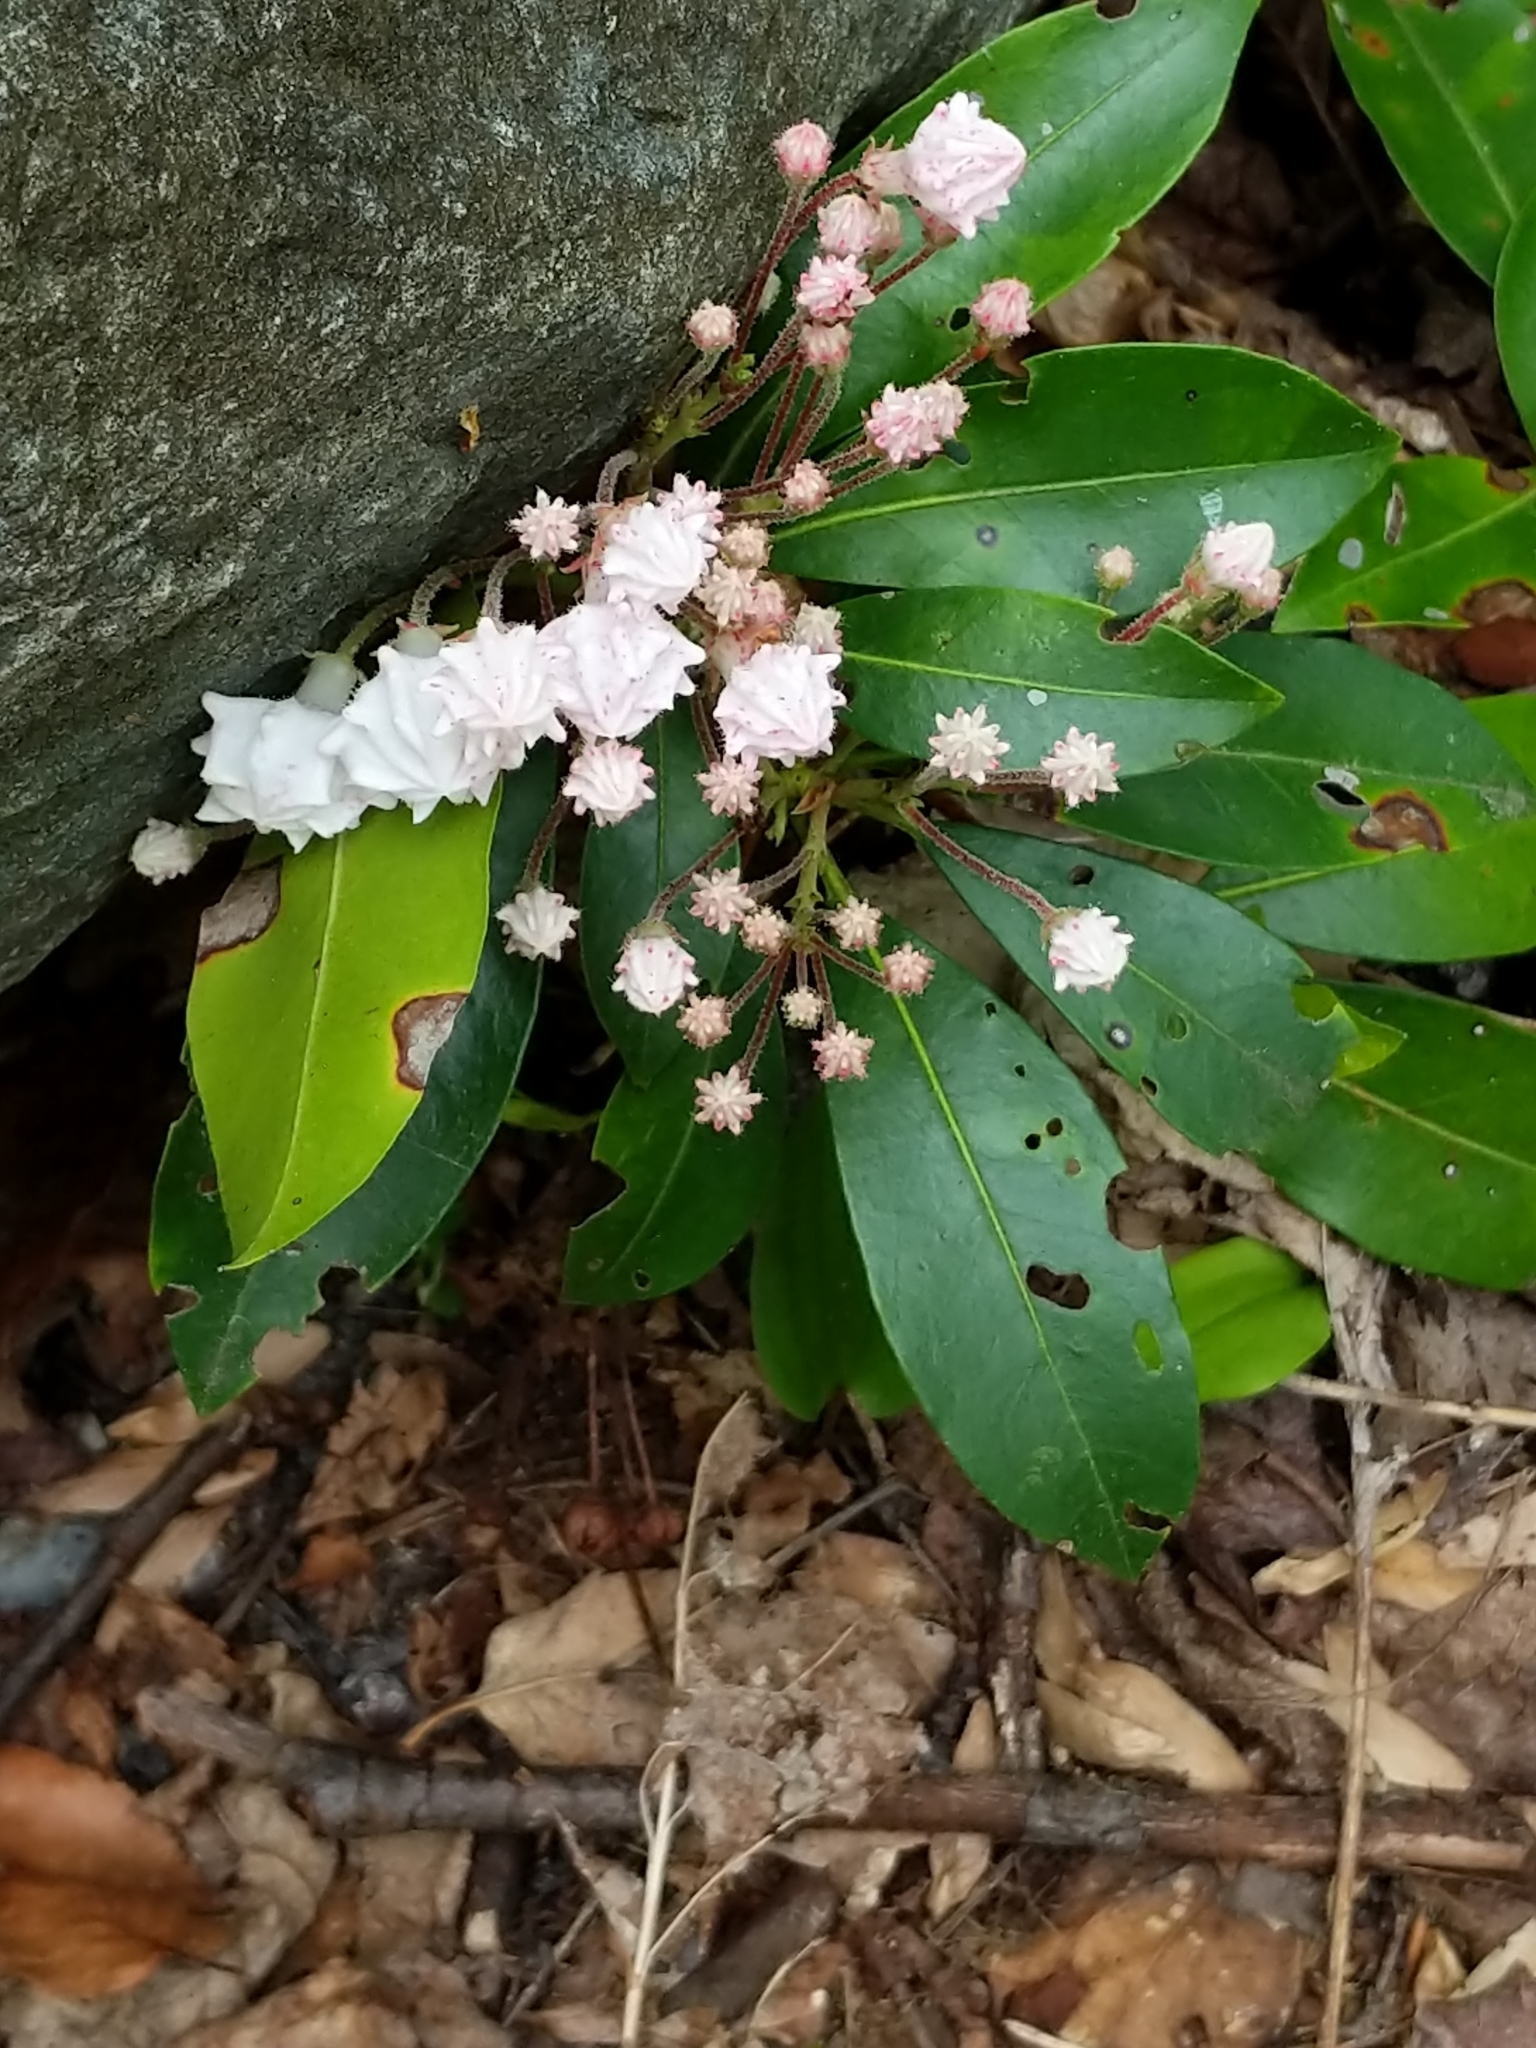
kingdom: Plantae
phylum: Tracheophyta
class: Magnoliopsida
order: Ericales
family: Ericaceae
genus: Kalmia
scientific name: Kalmia latifolia
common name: Mountain-laurel
